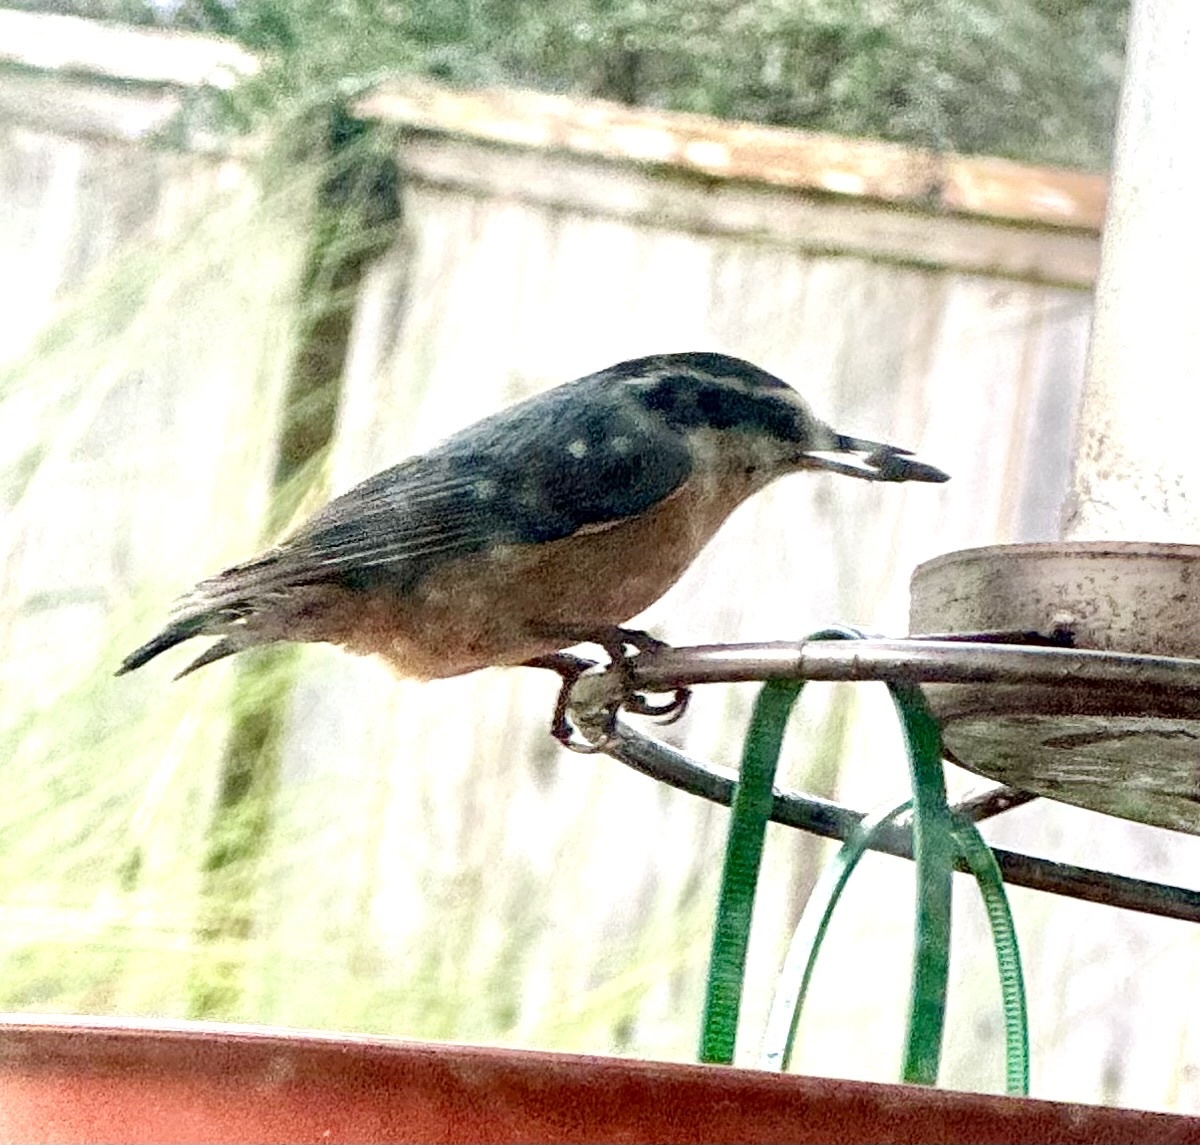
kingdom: Animalia
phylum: Chordata
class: Aves
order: Passeriformes
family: Sittidae
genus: Sitta
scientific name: Sitta canadensis
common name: Red-breasted nuthatch
